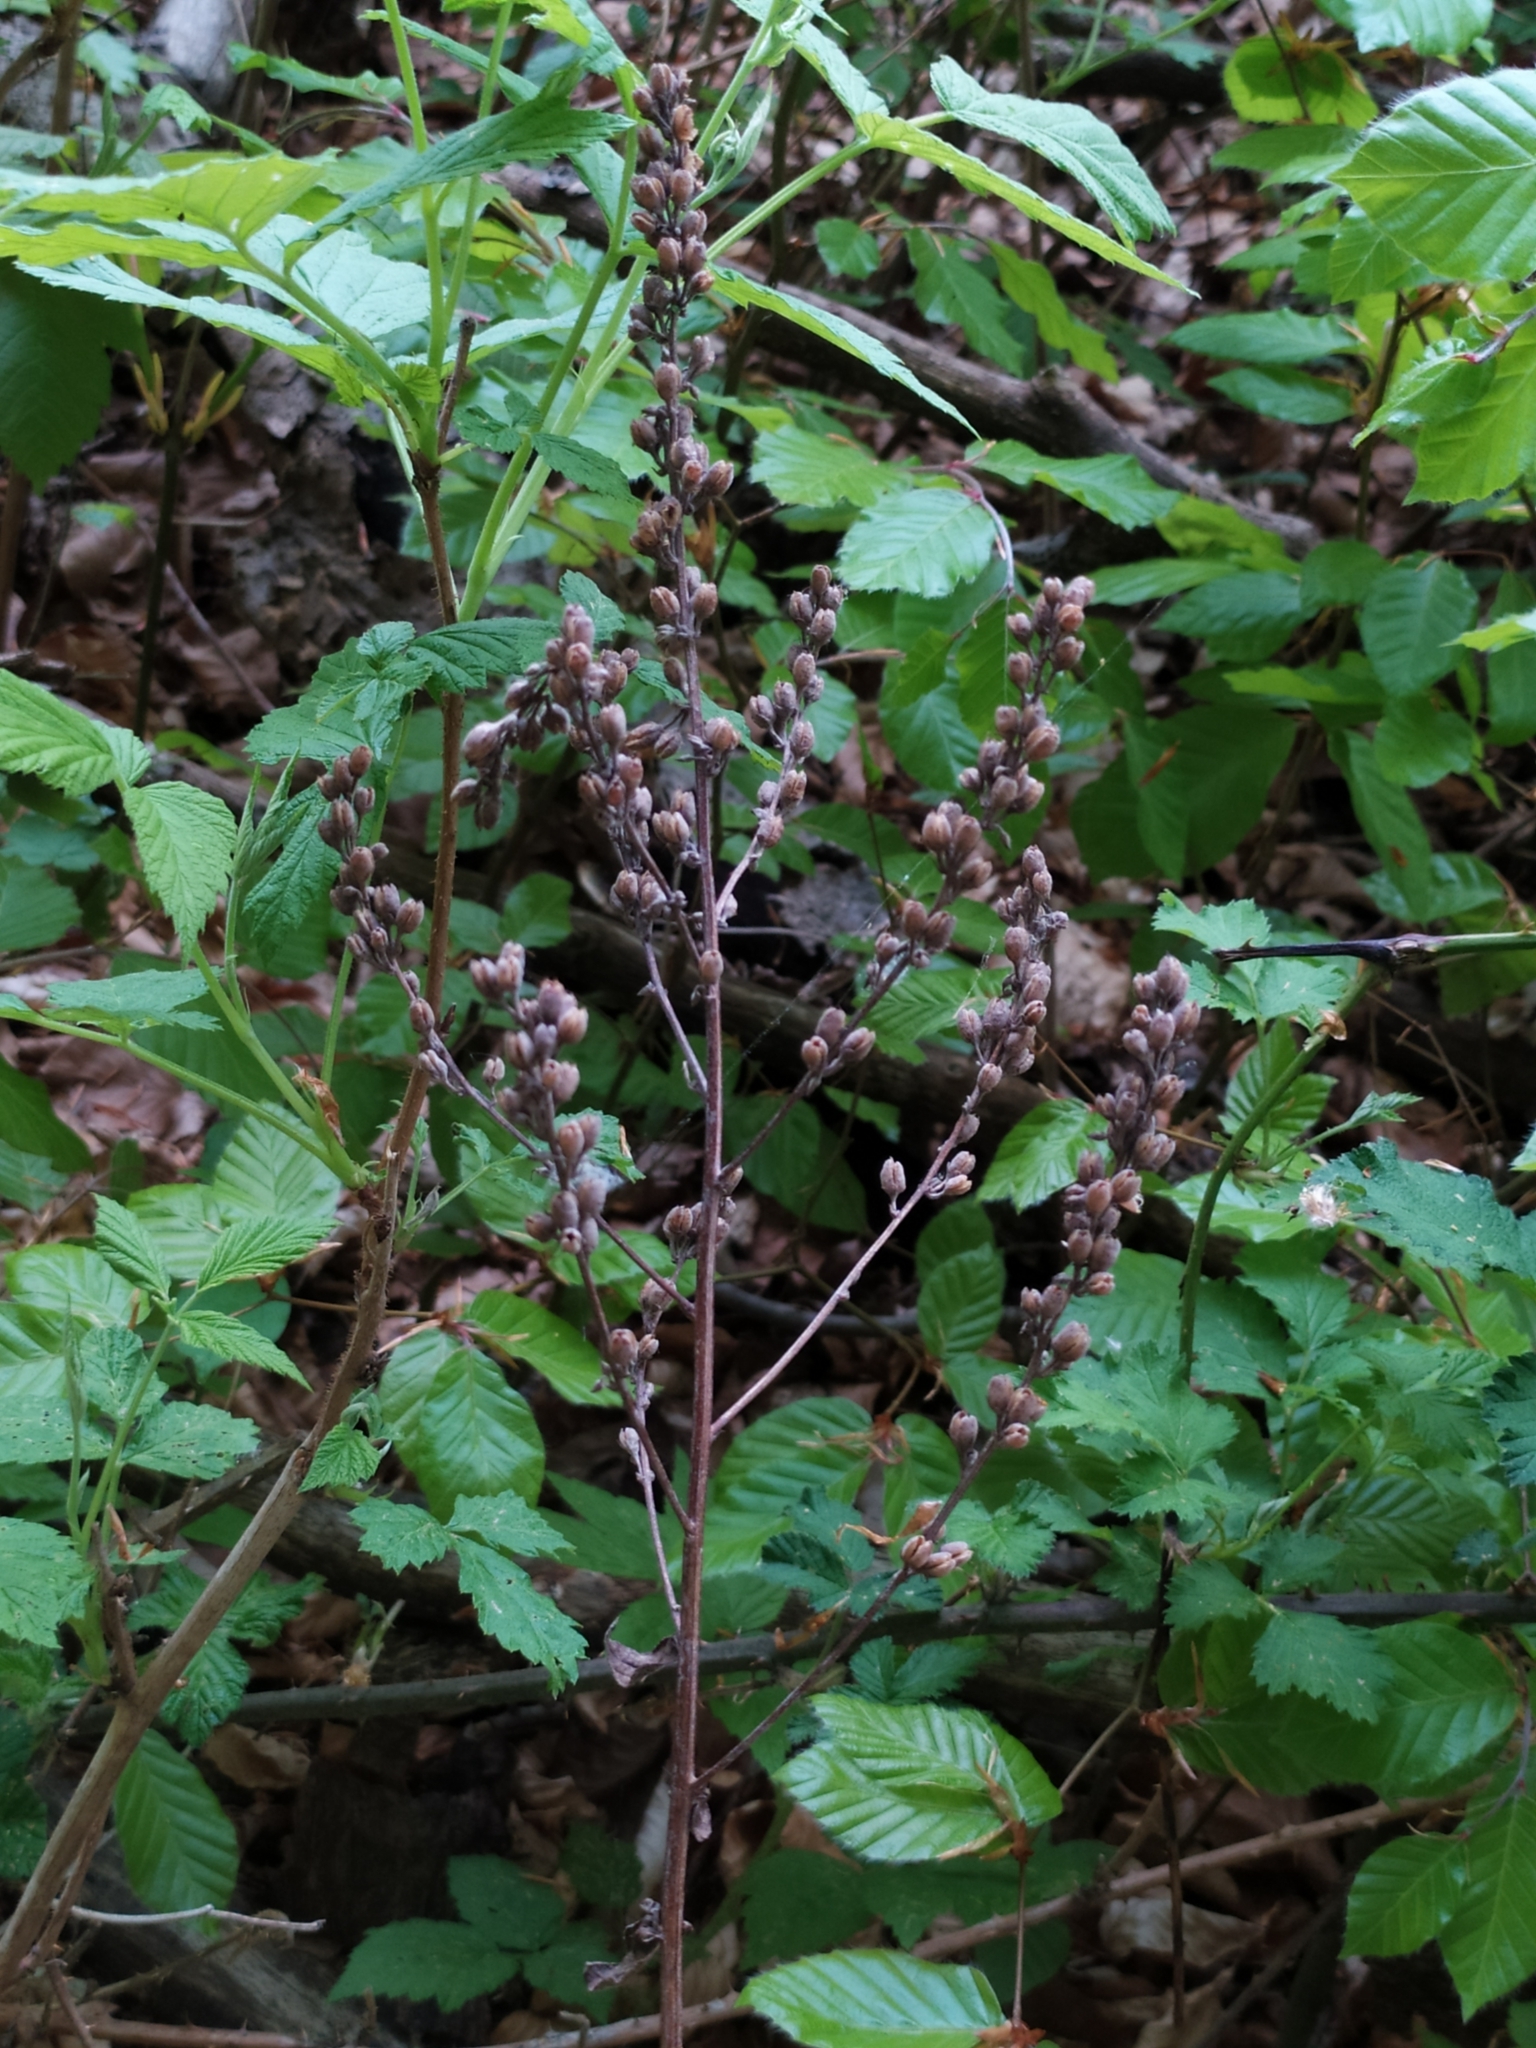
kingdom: Plantae
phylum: Tracheophyta
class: Magnoliopsida
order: Lamiales
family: Scrophulariaceae
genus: Verbascum
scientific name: Verbascum chaixii
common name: Nettle-leaved mullein
